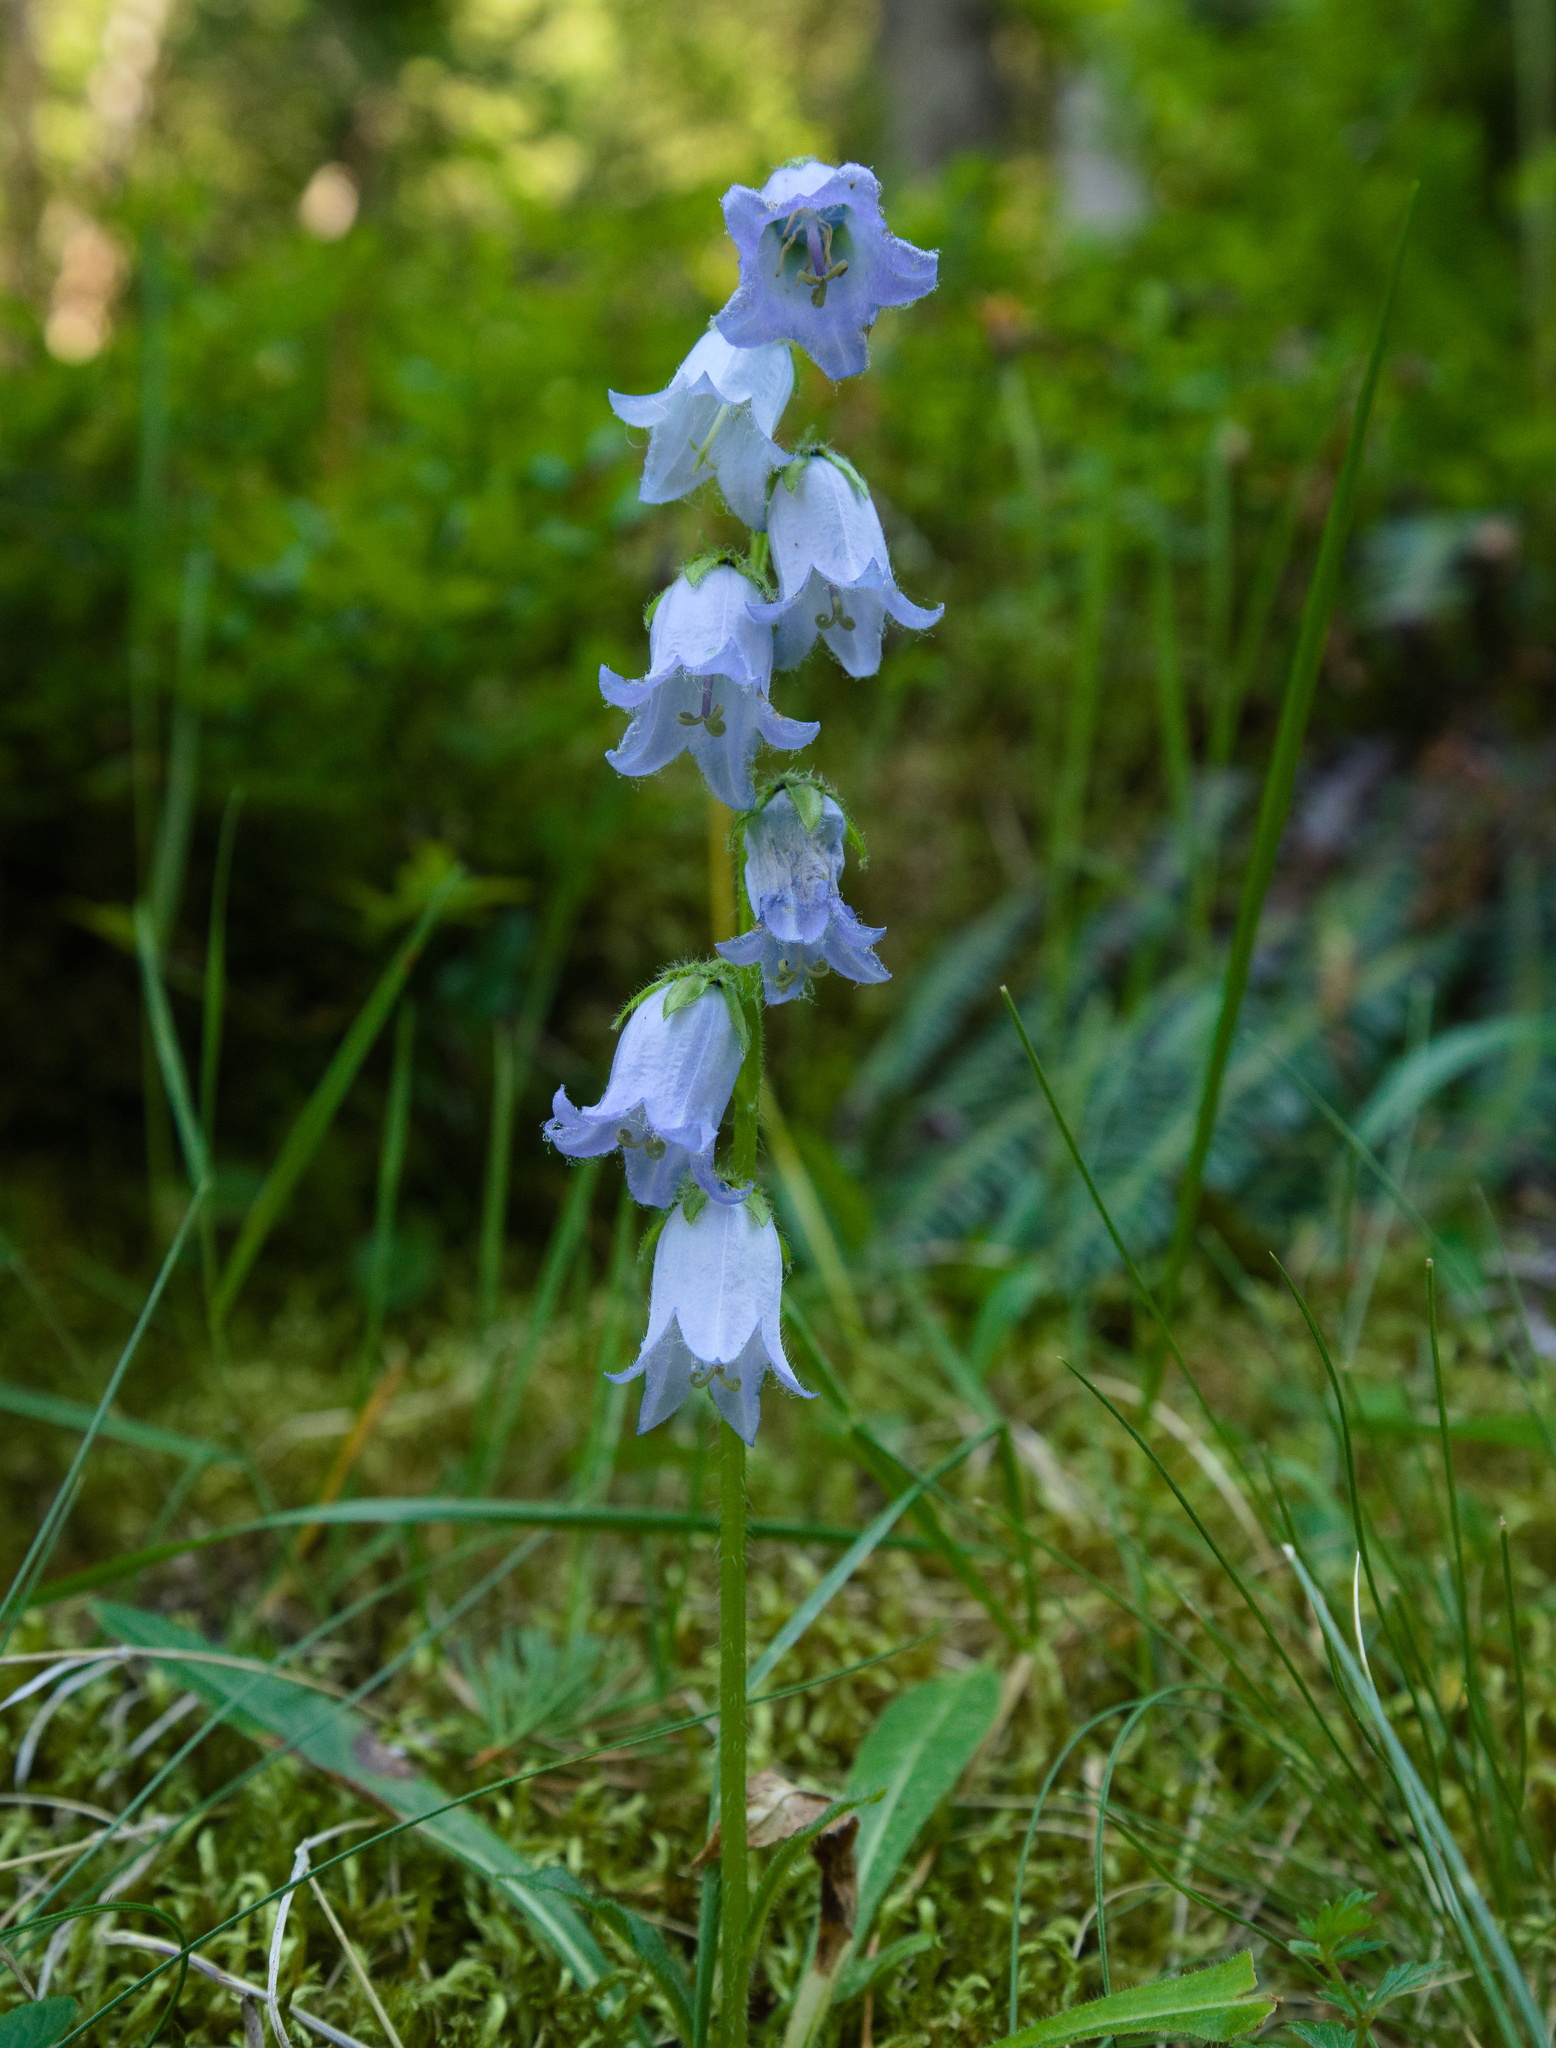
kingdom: Plantae
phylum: Tracheophyta
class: Magnoliopsida
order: Asterales
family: Campanulaceae
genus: Campanula
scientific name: Campanula barbata
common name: Bearded bellflower
